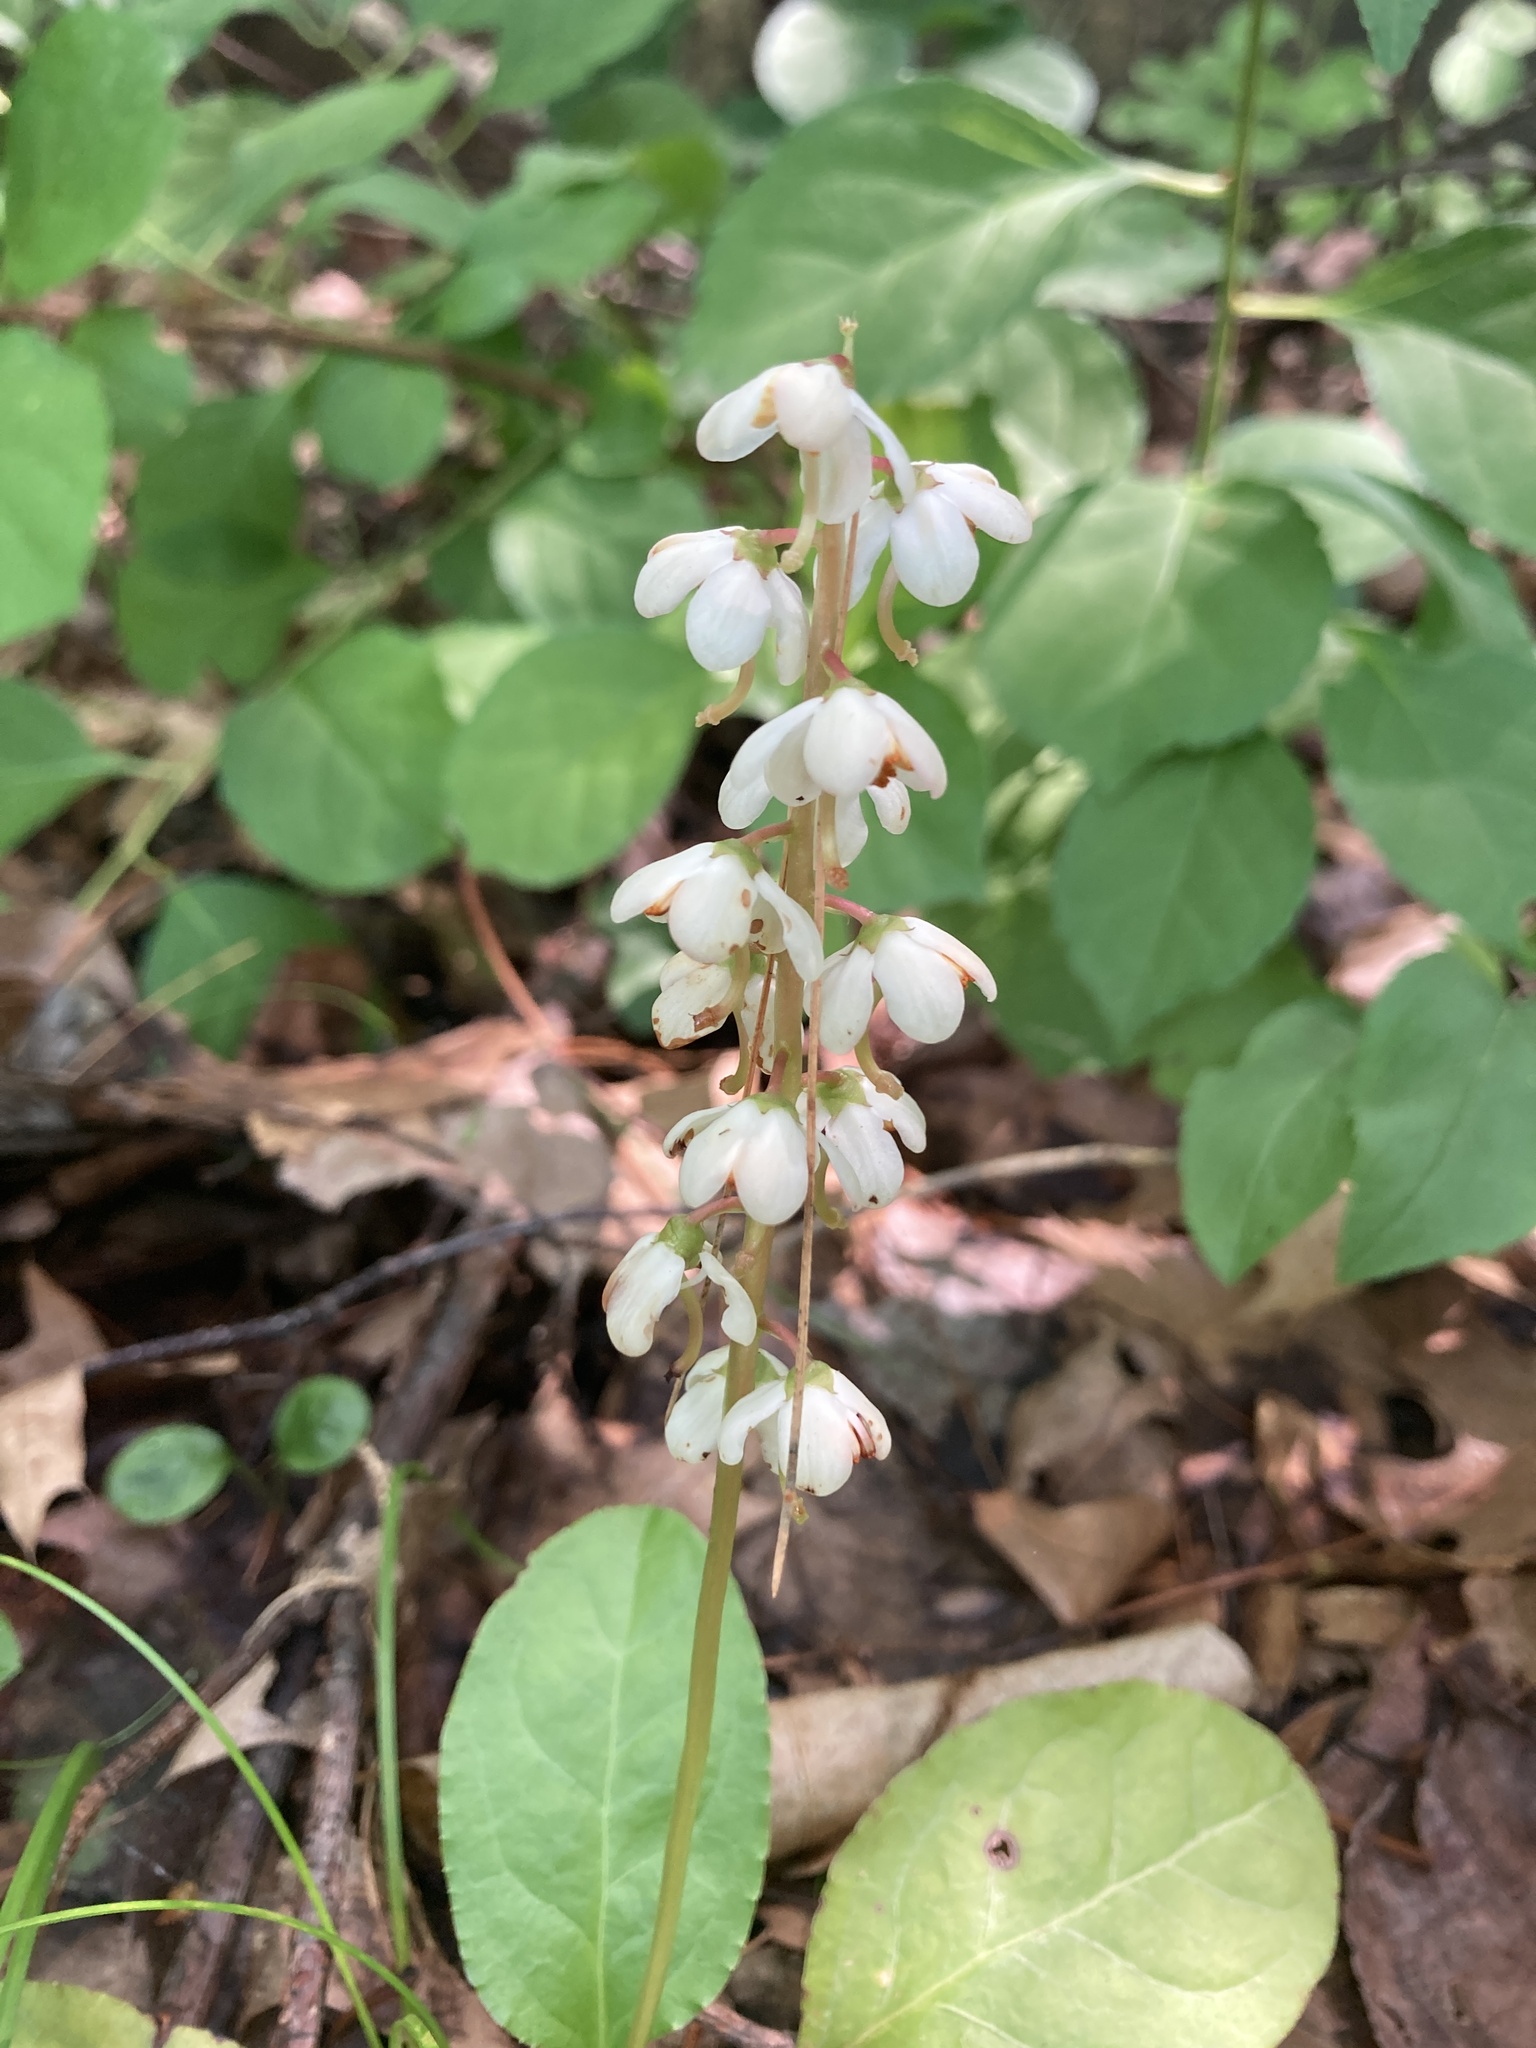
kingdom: Plantae
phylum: Tracheophyta
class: Magnoliopsida
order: Ericales
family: Ericaceae
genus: Pyrola
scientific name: Pyrola elliptica
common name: Shinleaf
